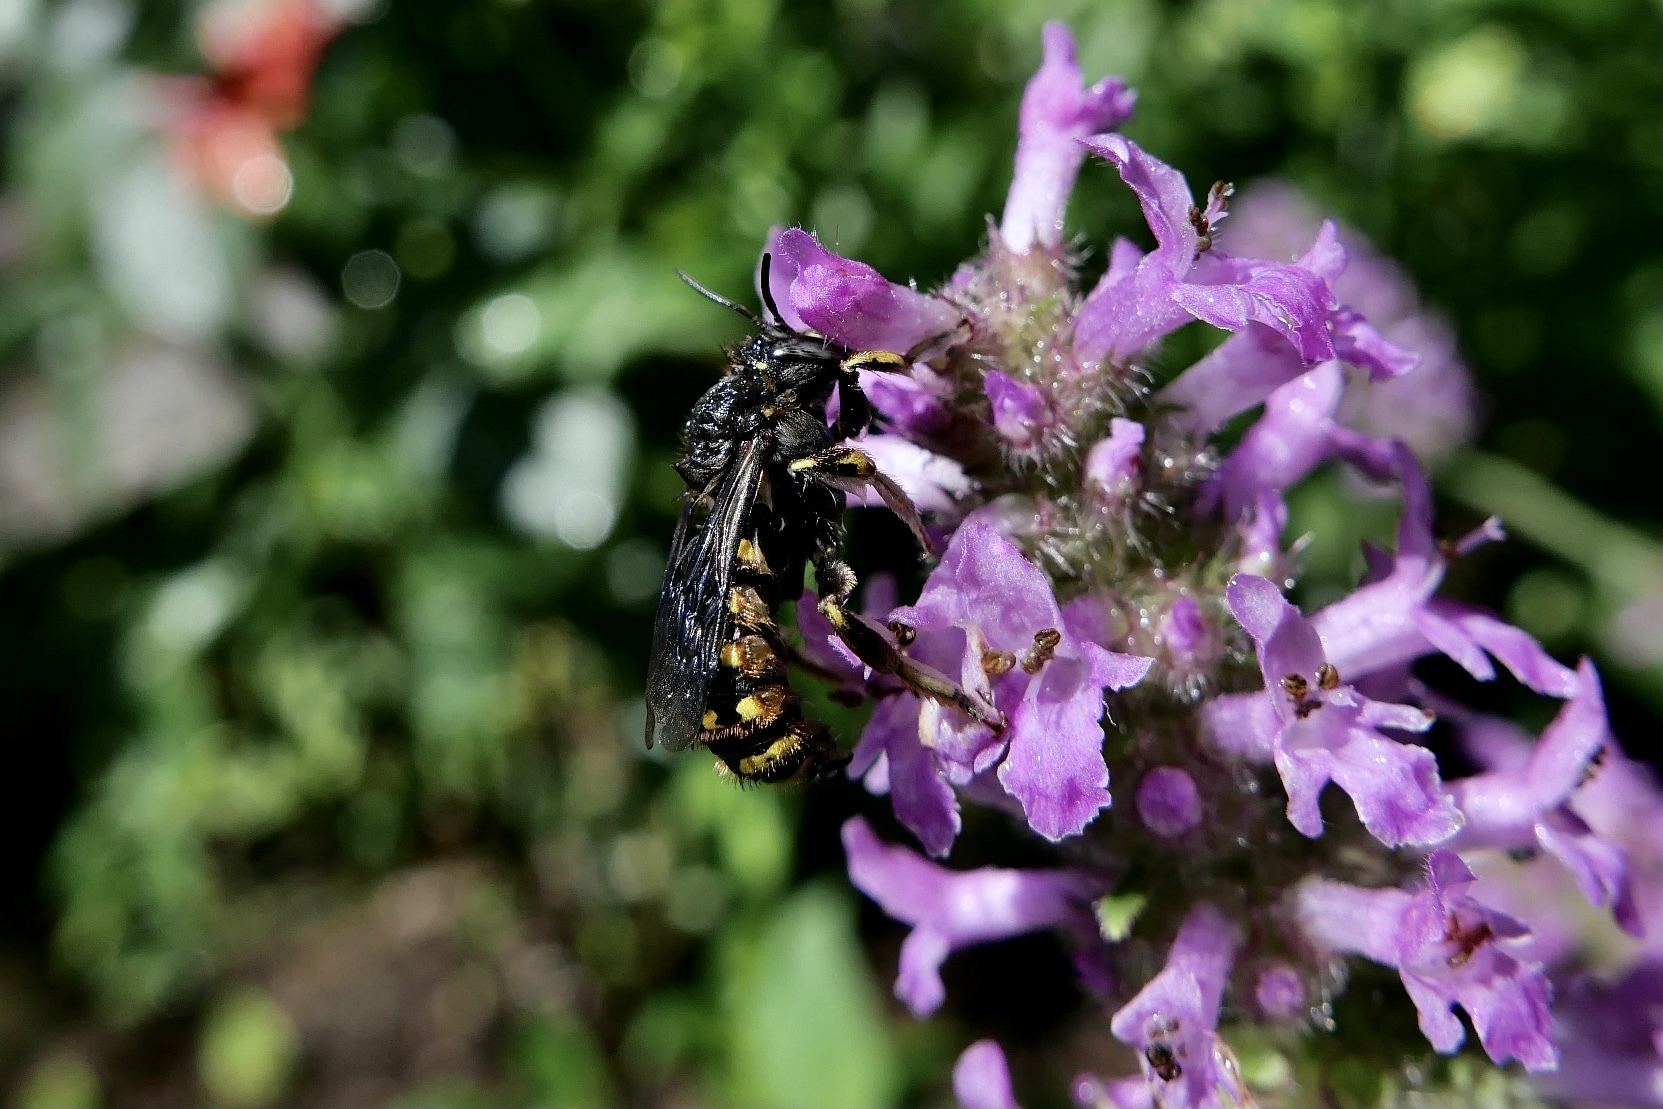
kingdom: Animalia
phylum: Arthropoda
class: Insecta
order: Hymenoptera
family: Megachilidae
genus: Anthidium
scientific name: Anthidium manicatum
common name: Wool carder bee
